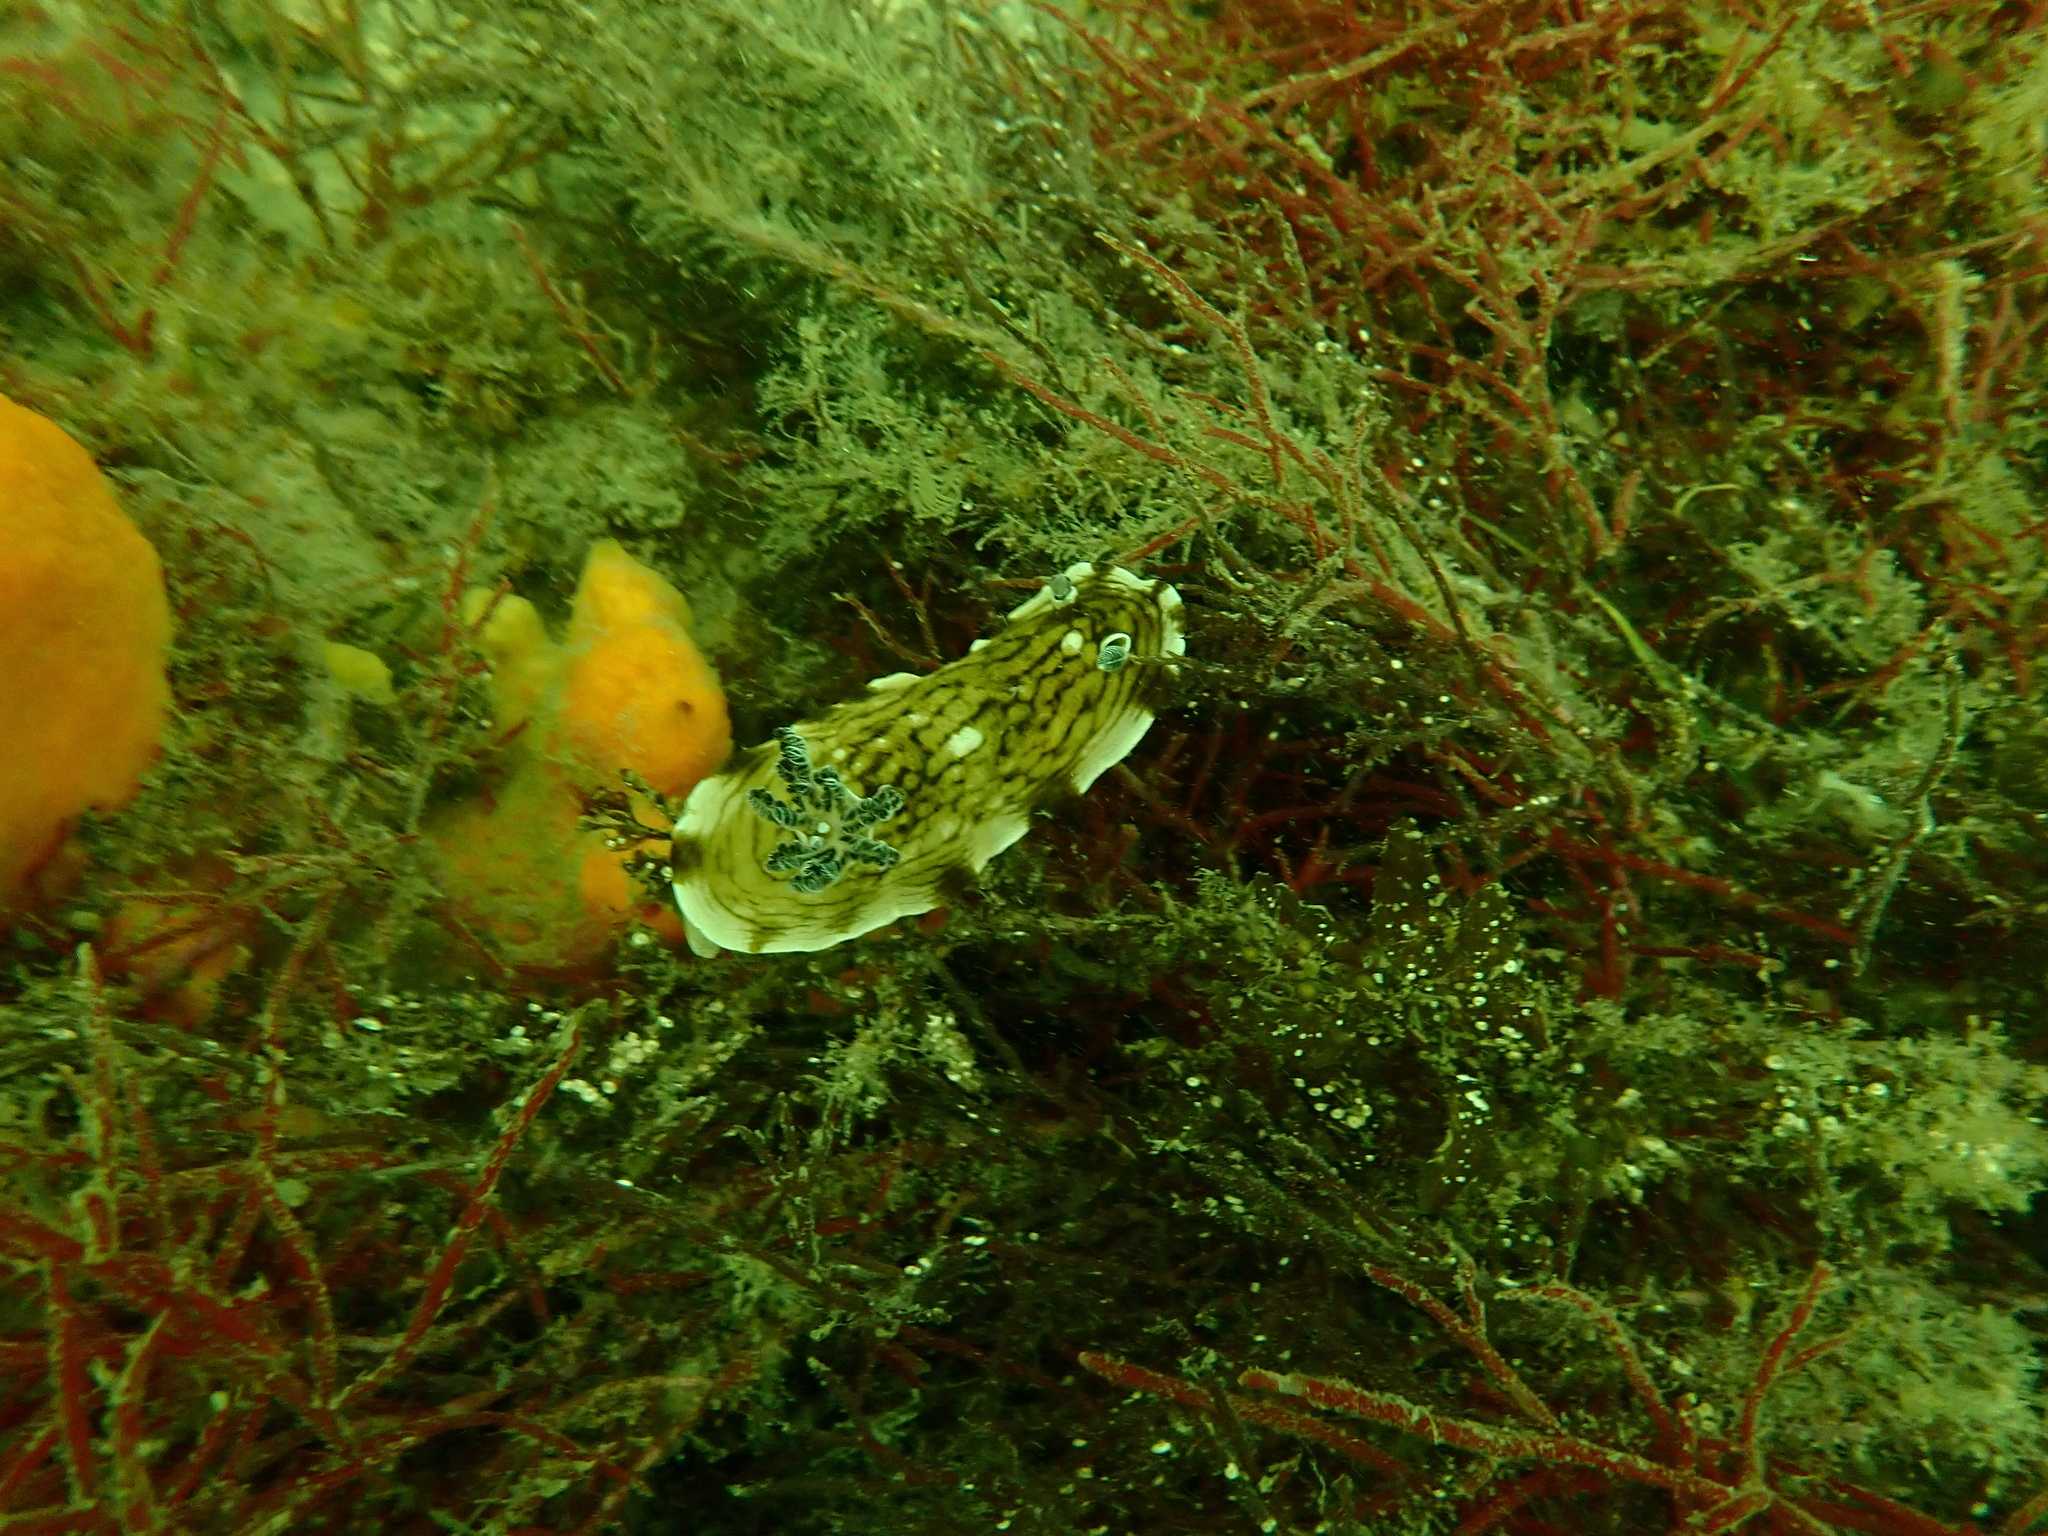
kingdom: Animalia
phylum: Mollusca
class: Gastropoda
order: Nudibranchia
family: Dorididae
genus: Aphelodoris
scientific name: Aphelodoris varia
